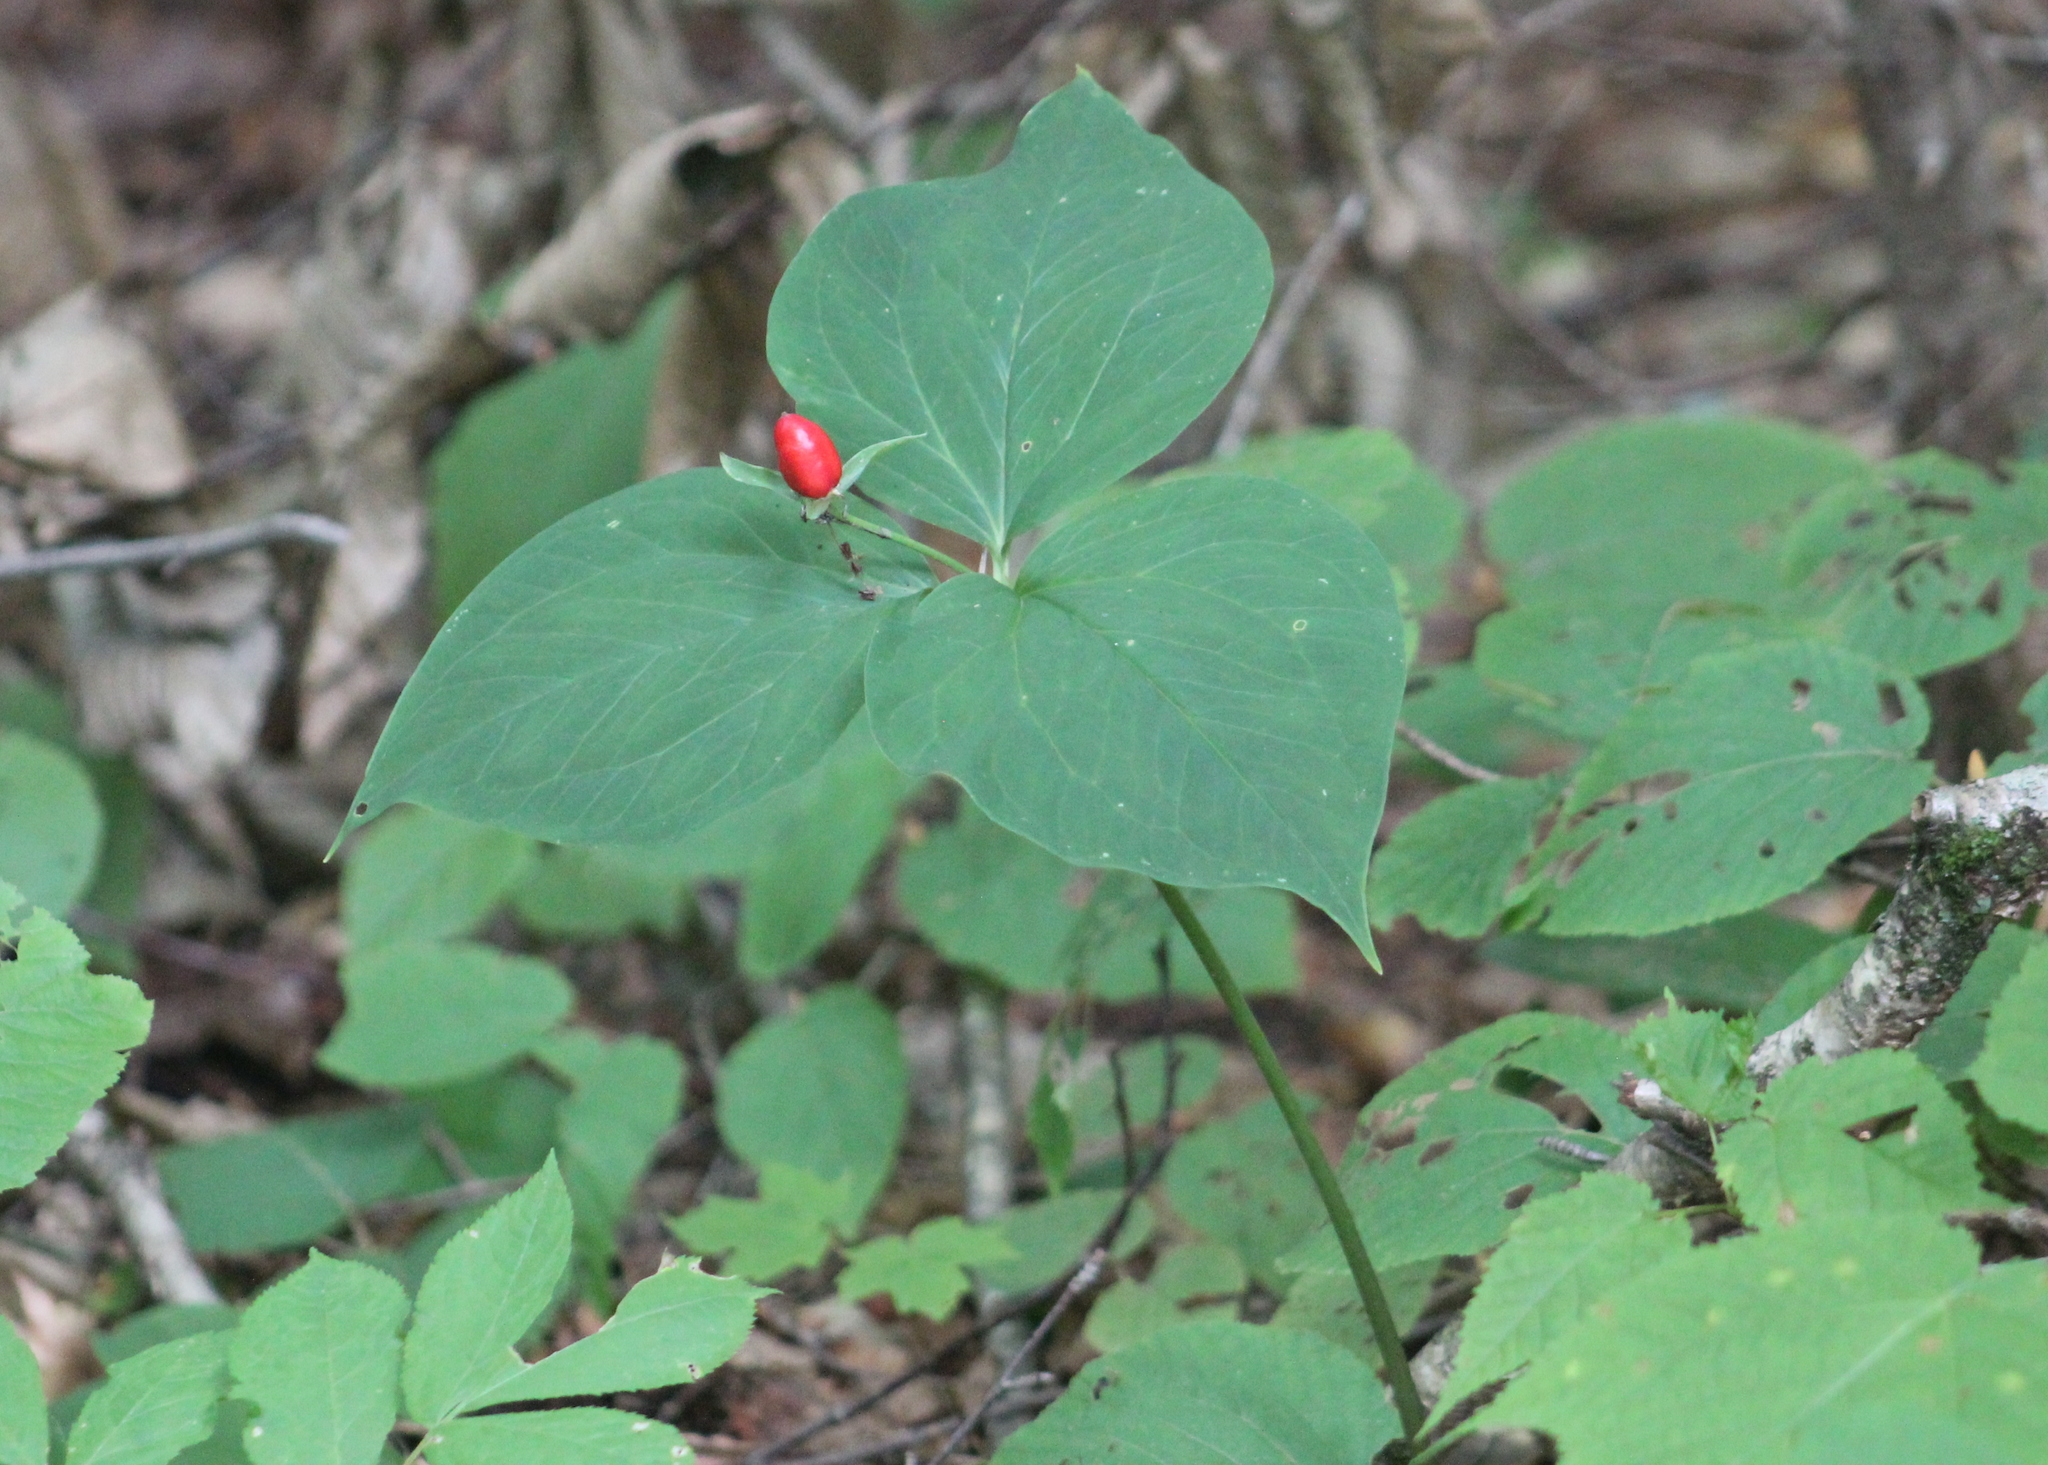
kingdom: Plantae
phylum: Tracheophyta
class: Liliopsida
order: Liliales
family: Melanthiaceae
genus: Trillium
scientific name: Trillium undulatum
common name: Paint trillium
